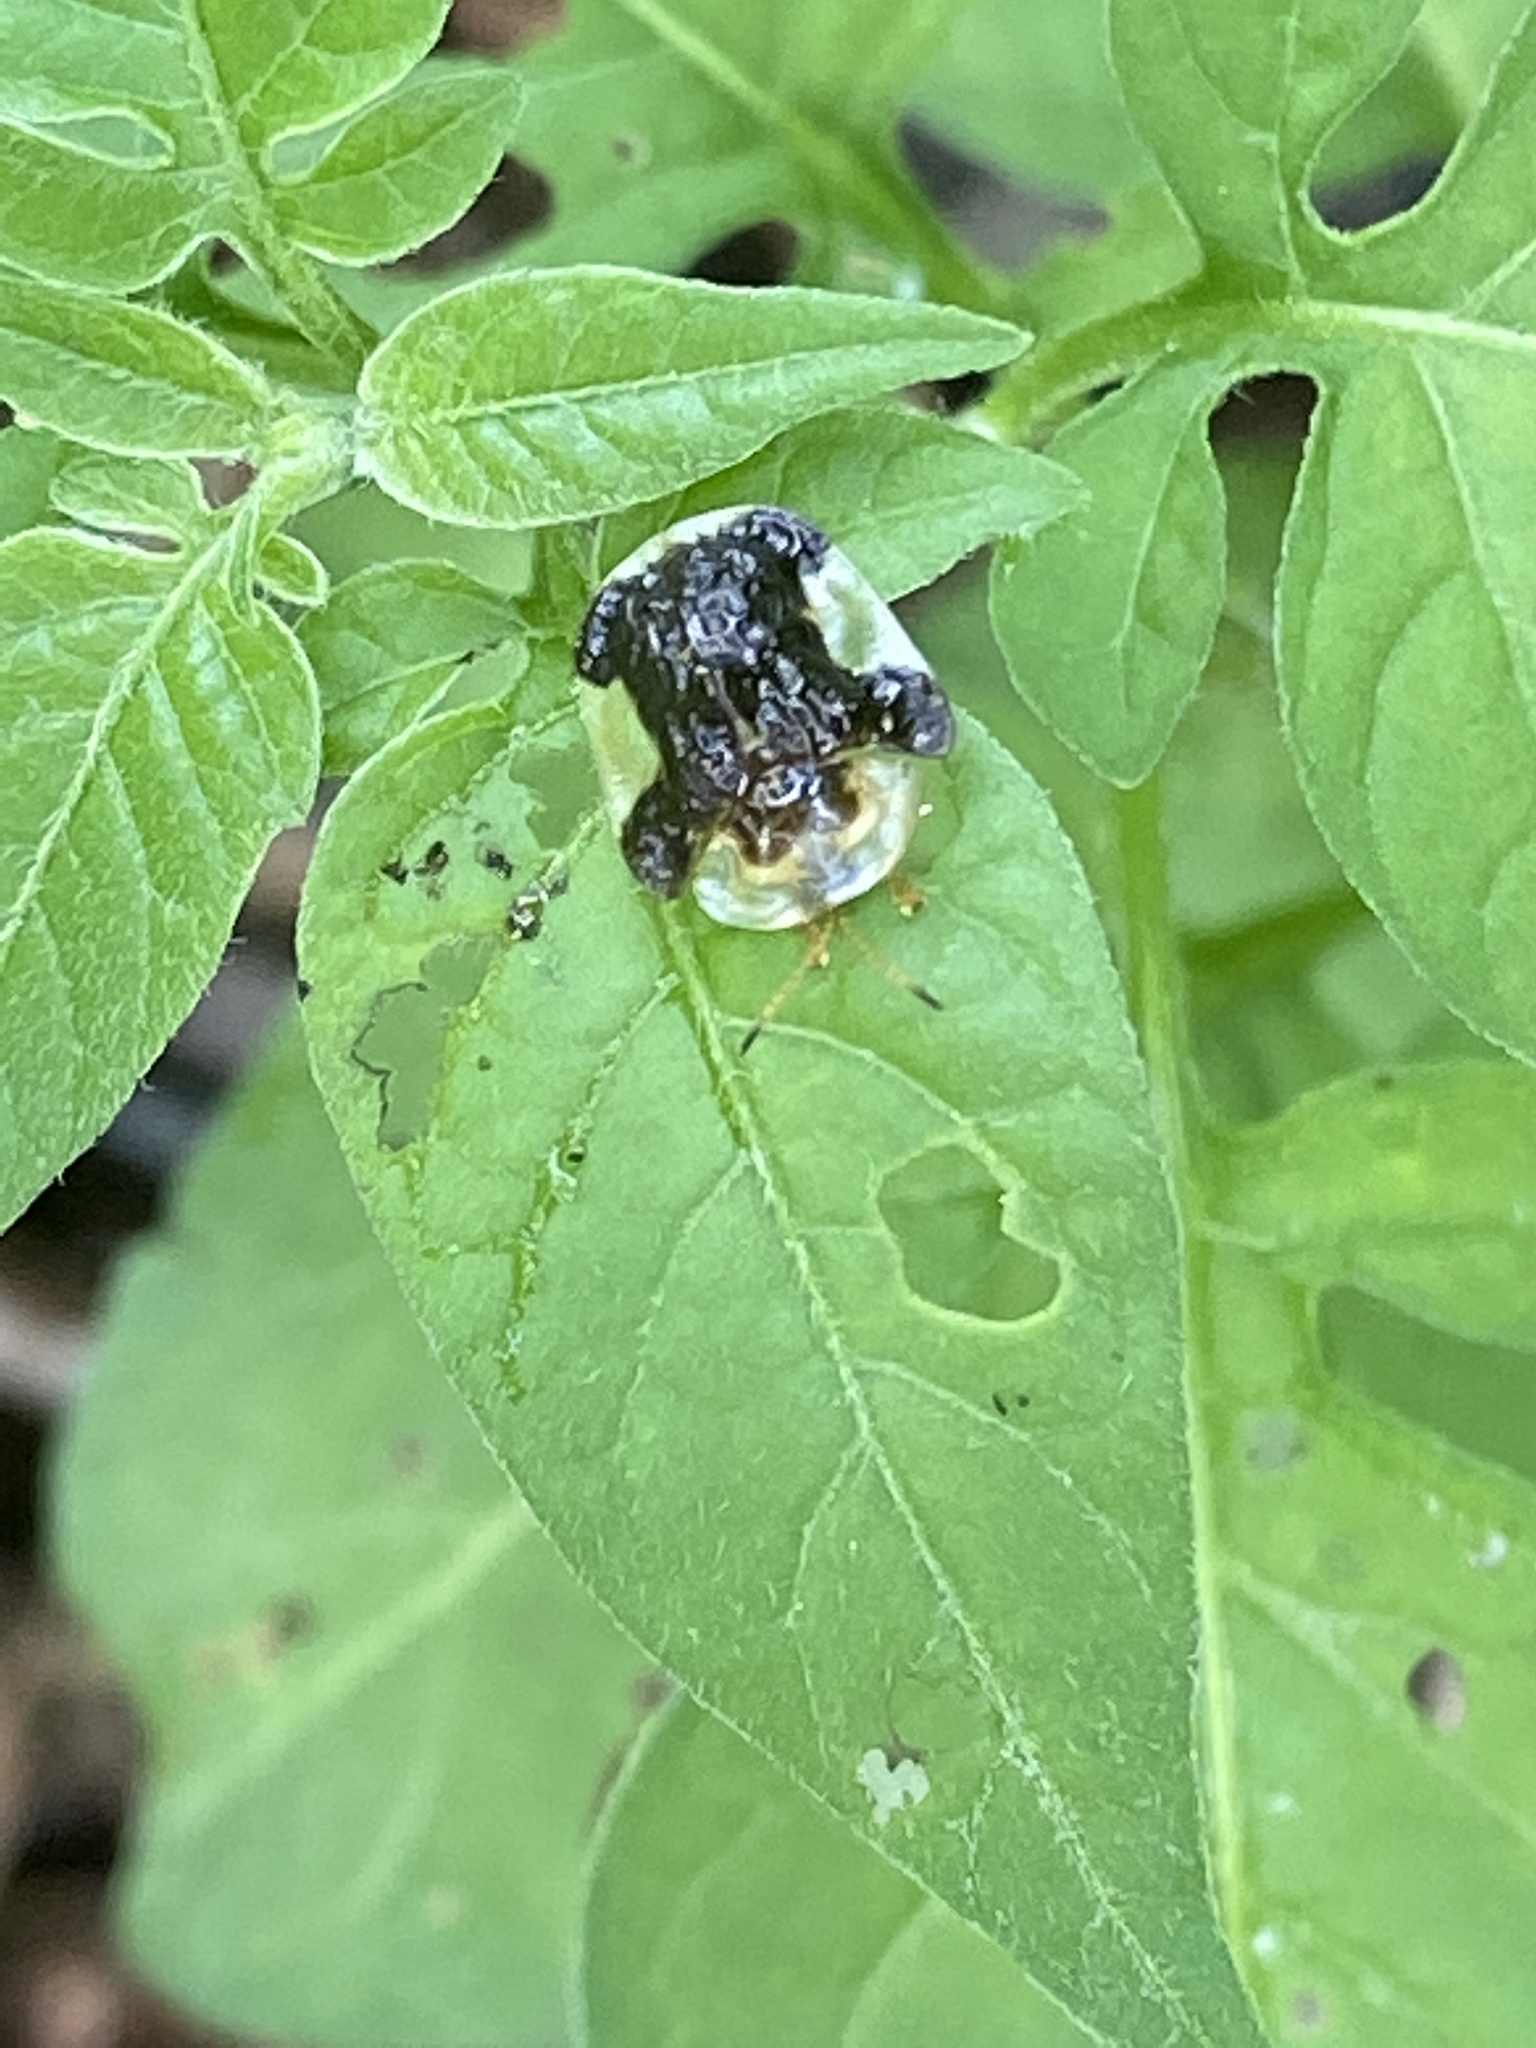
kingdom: Animalia
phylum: Arthropoda
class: Insecta
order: Coleoptera
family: Chrysomelidae
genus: Helocassis
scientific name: Helocassis clavata
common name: Clavate tortoise beetle
